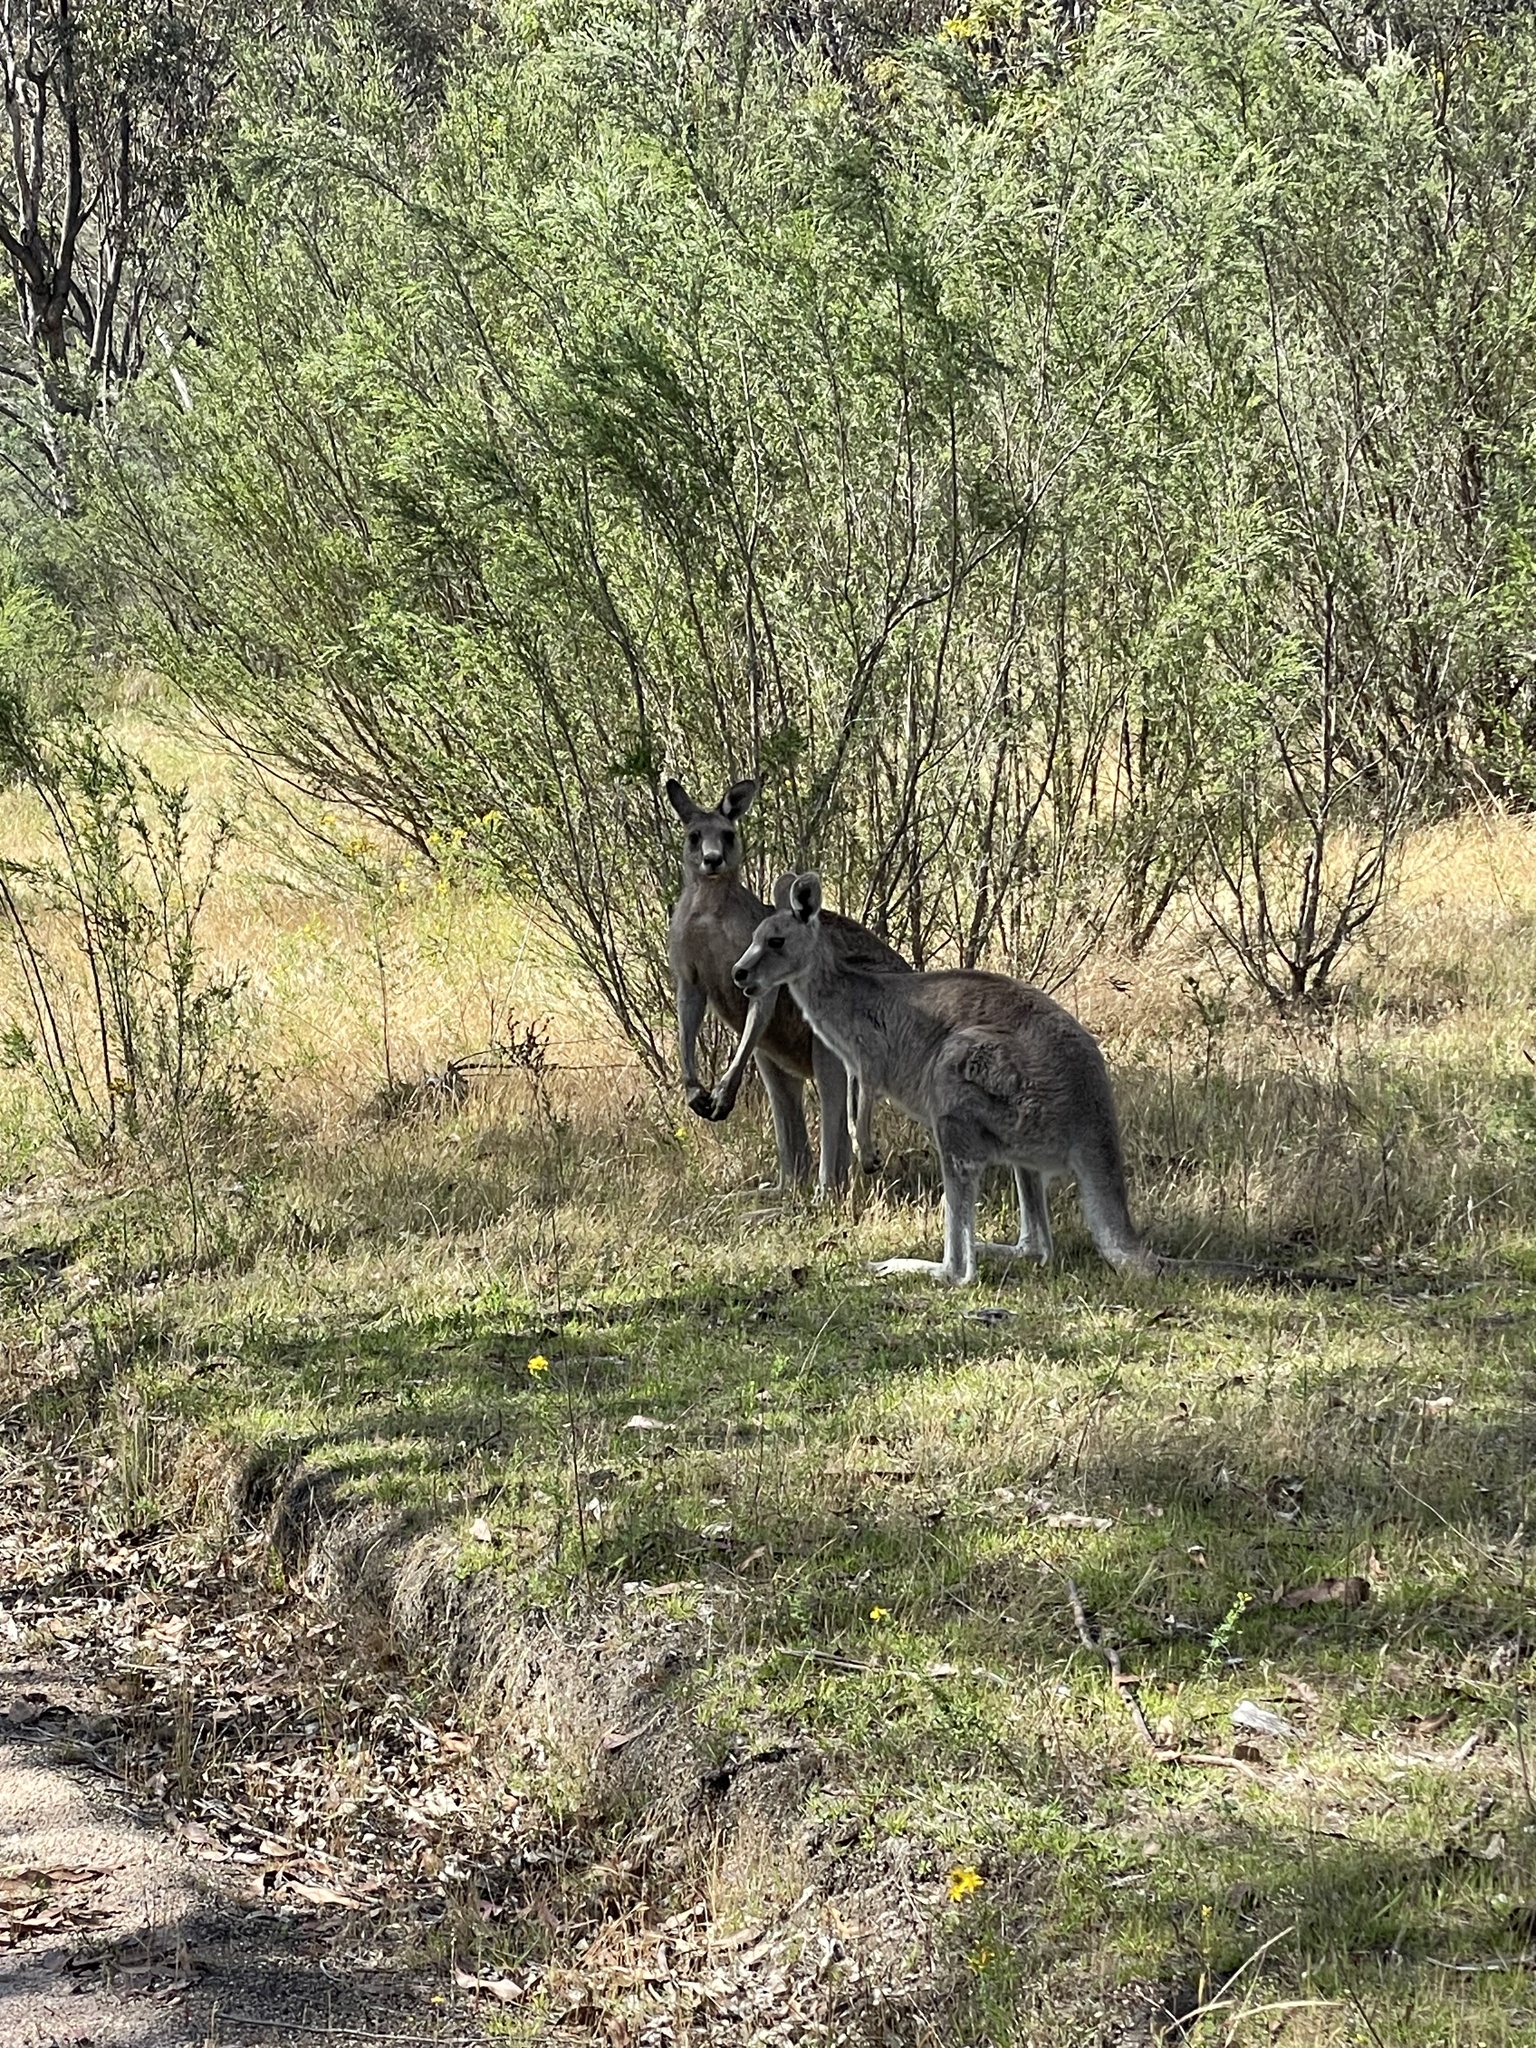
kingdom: Animalia
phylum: Chordata
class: Mammalia
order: Diprotodontia
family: Macropodidae
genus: Macropus
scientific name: Macropus giganteus
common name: Eastern grey kangaroo
